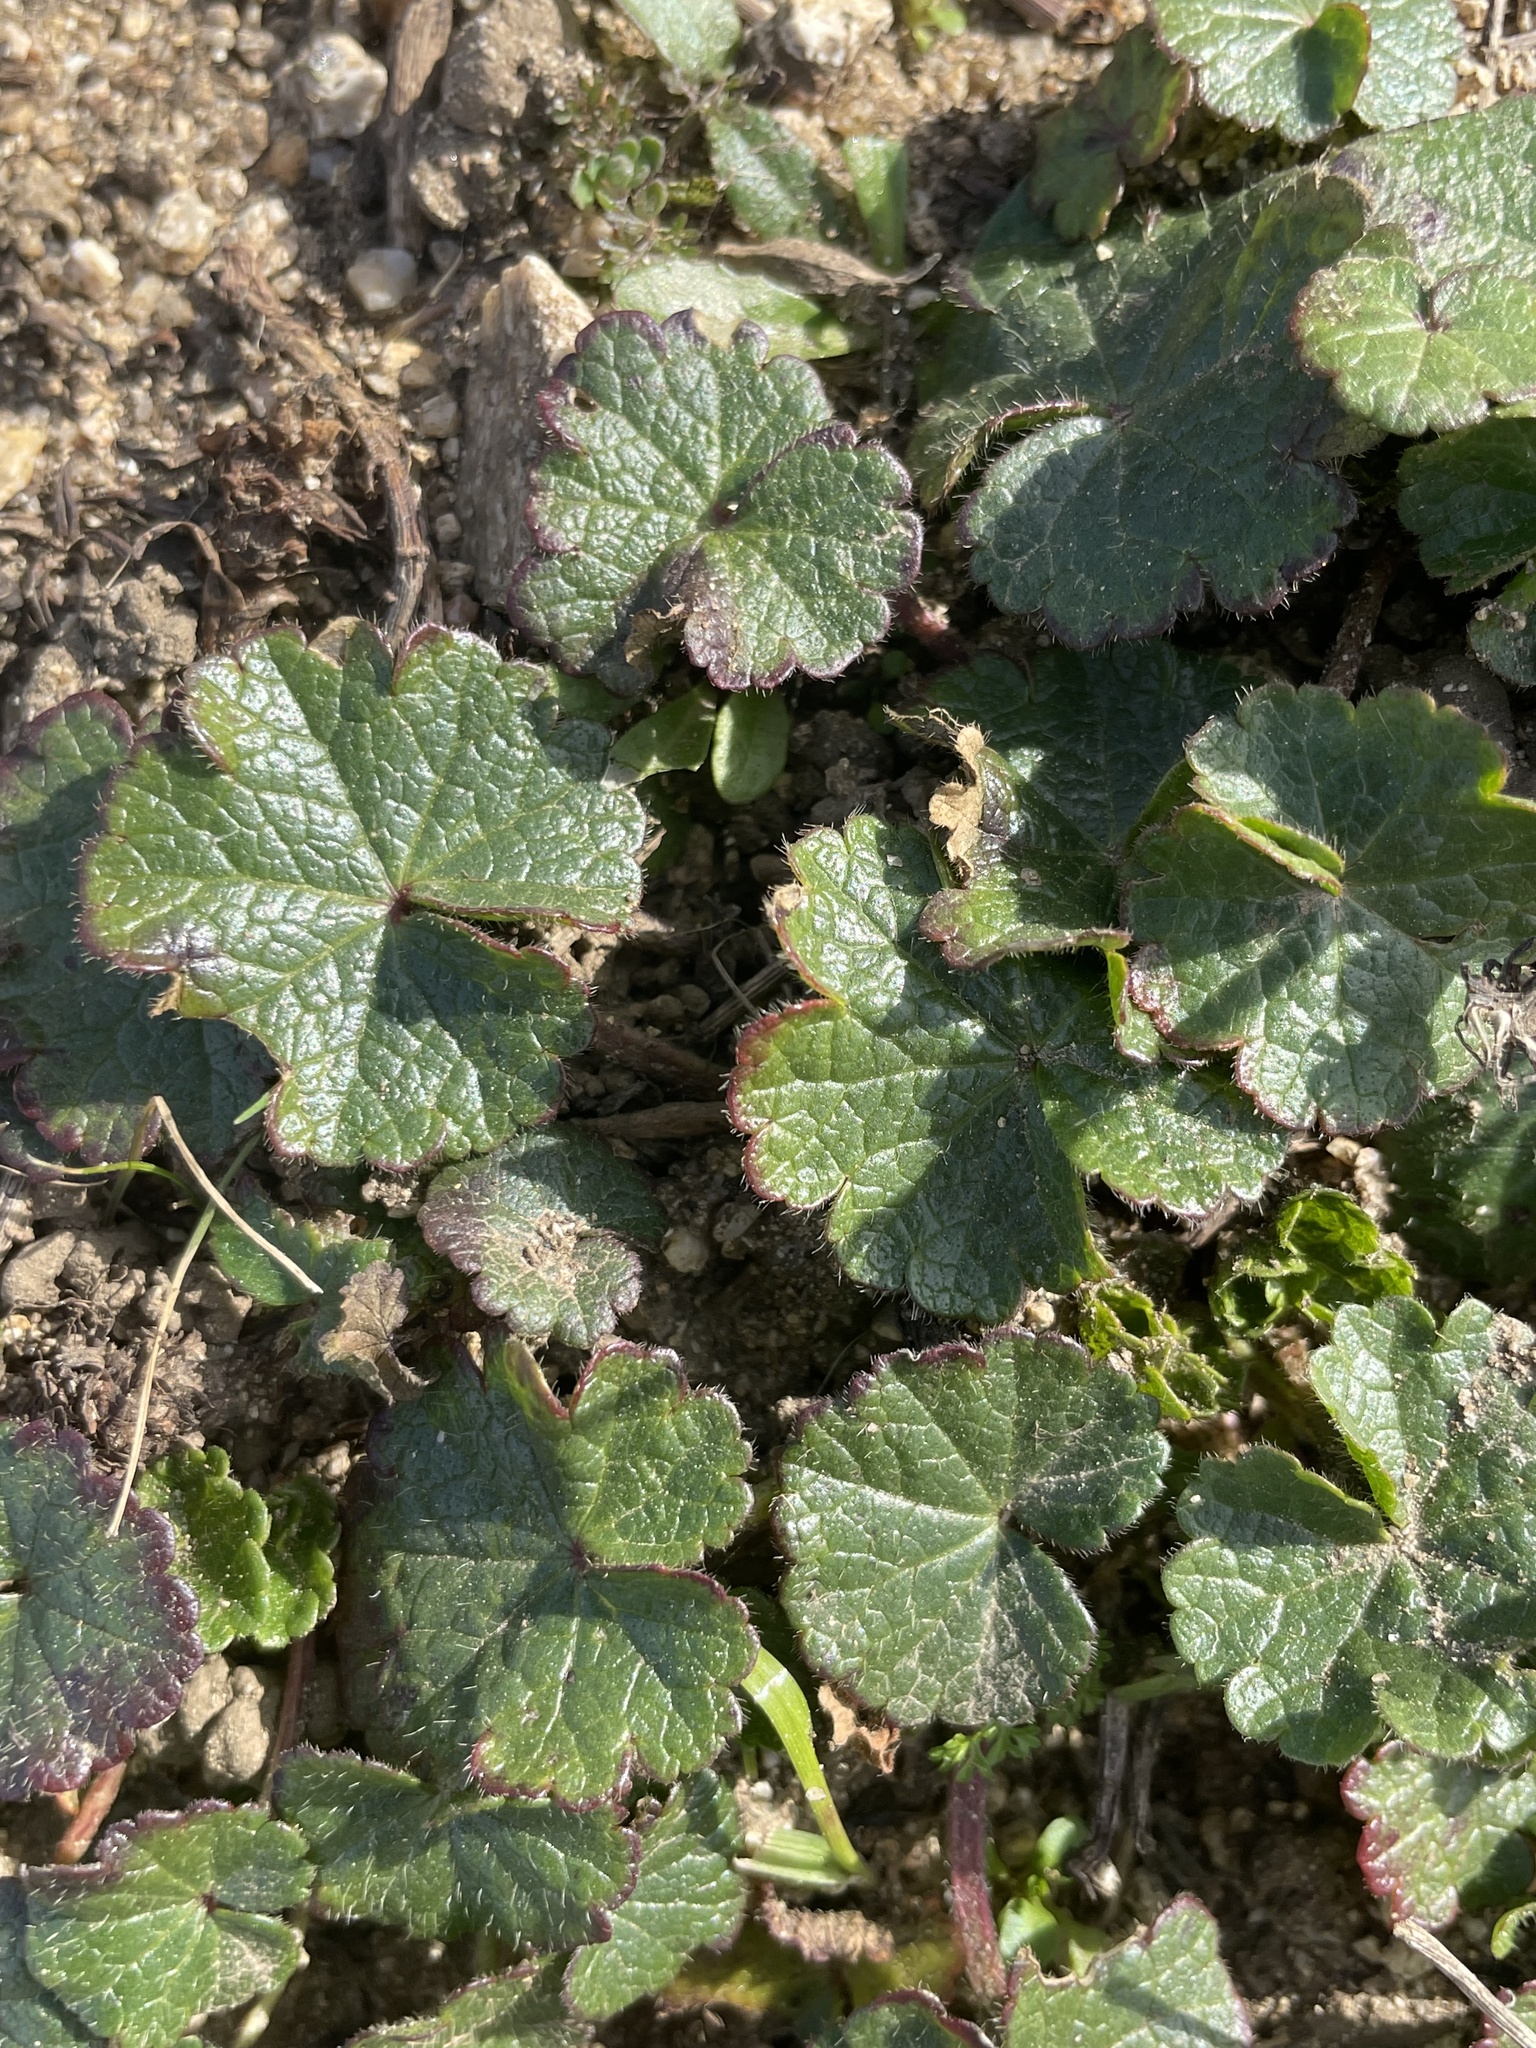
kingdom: Plantae
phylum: Tracheophyta
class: Magnoliopsida
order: Malvales
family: Malvaceae
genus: Sidalcea
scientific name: Sidalcea malviflora
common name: Greek mallow
